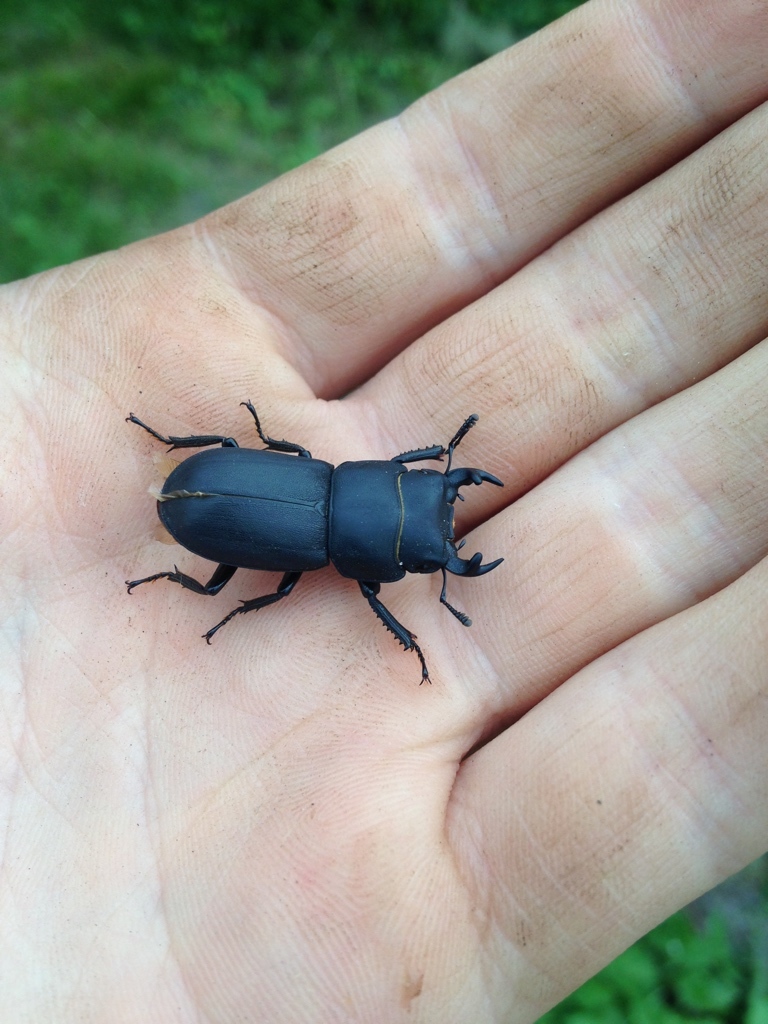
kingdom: Animalia
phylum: Arthropoda
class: Insecta
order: Coleoptera
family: Lucanidae
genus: Dorcus
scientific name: Dorcus parallelipipedus
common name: Lesser stag beetle
